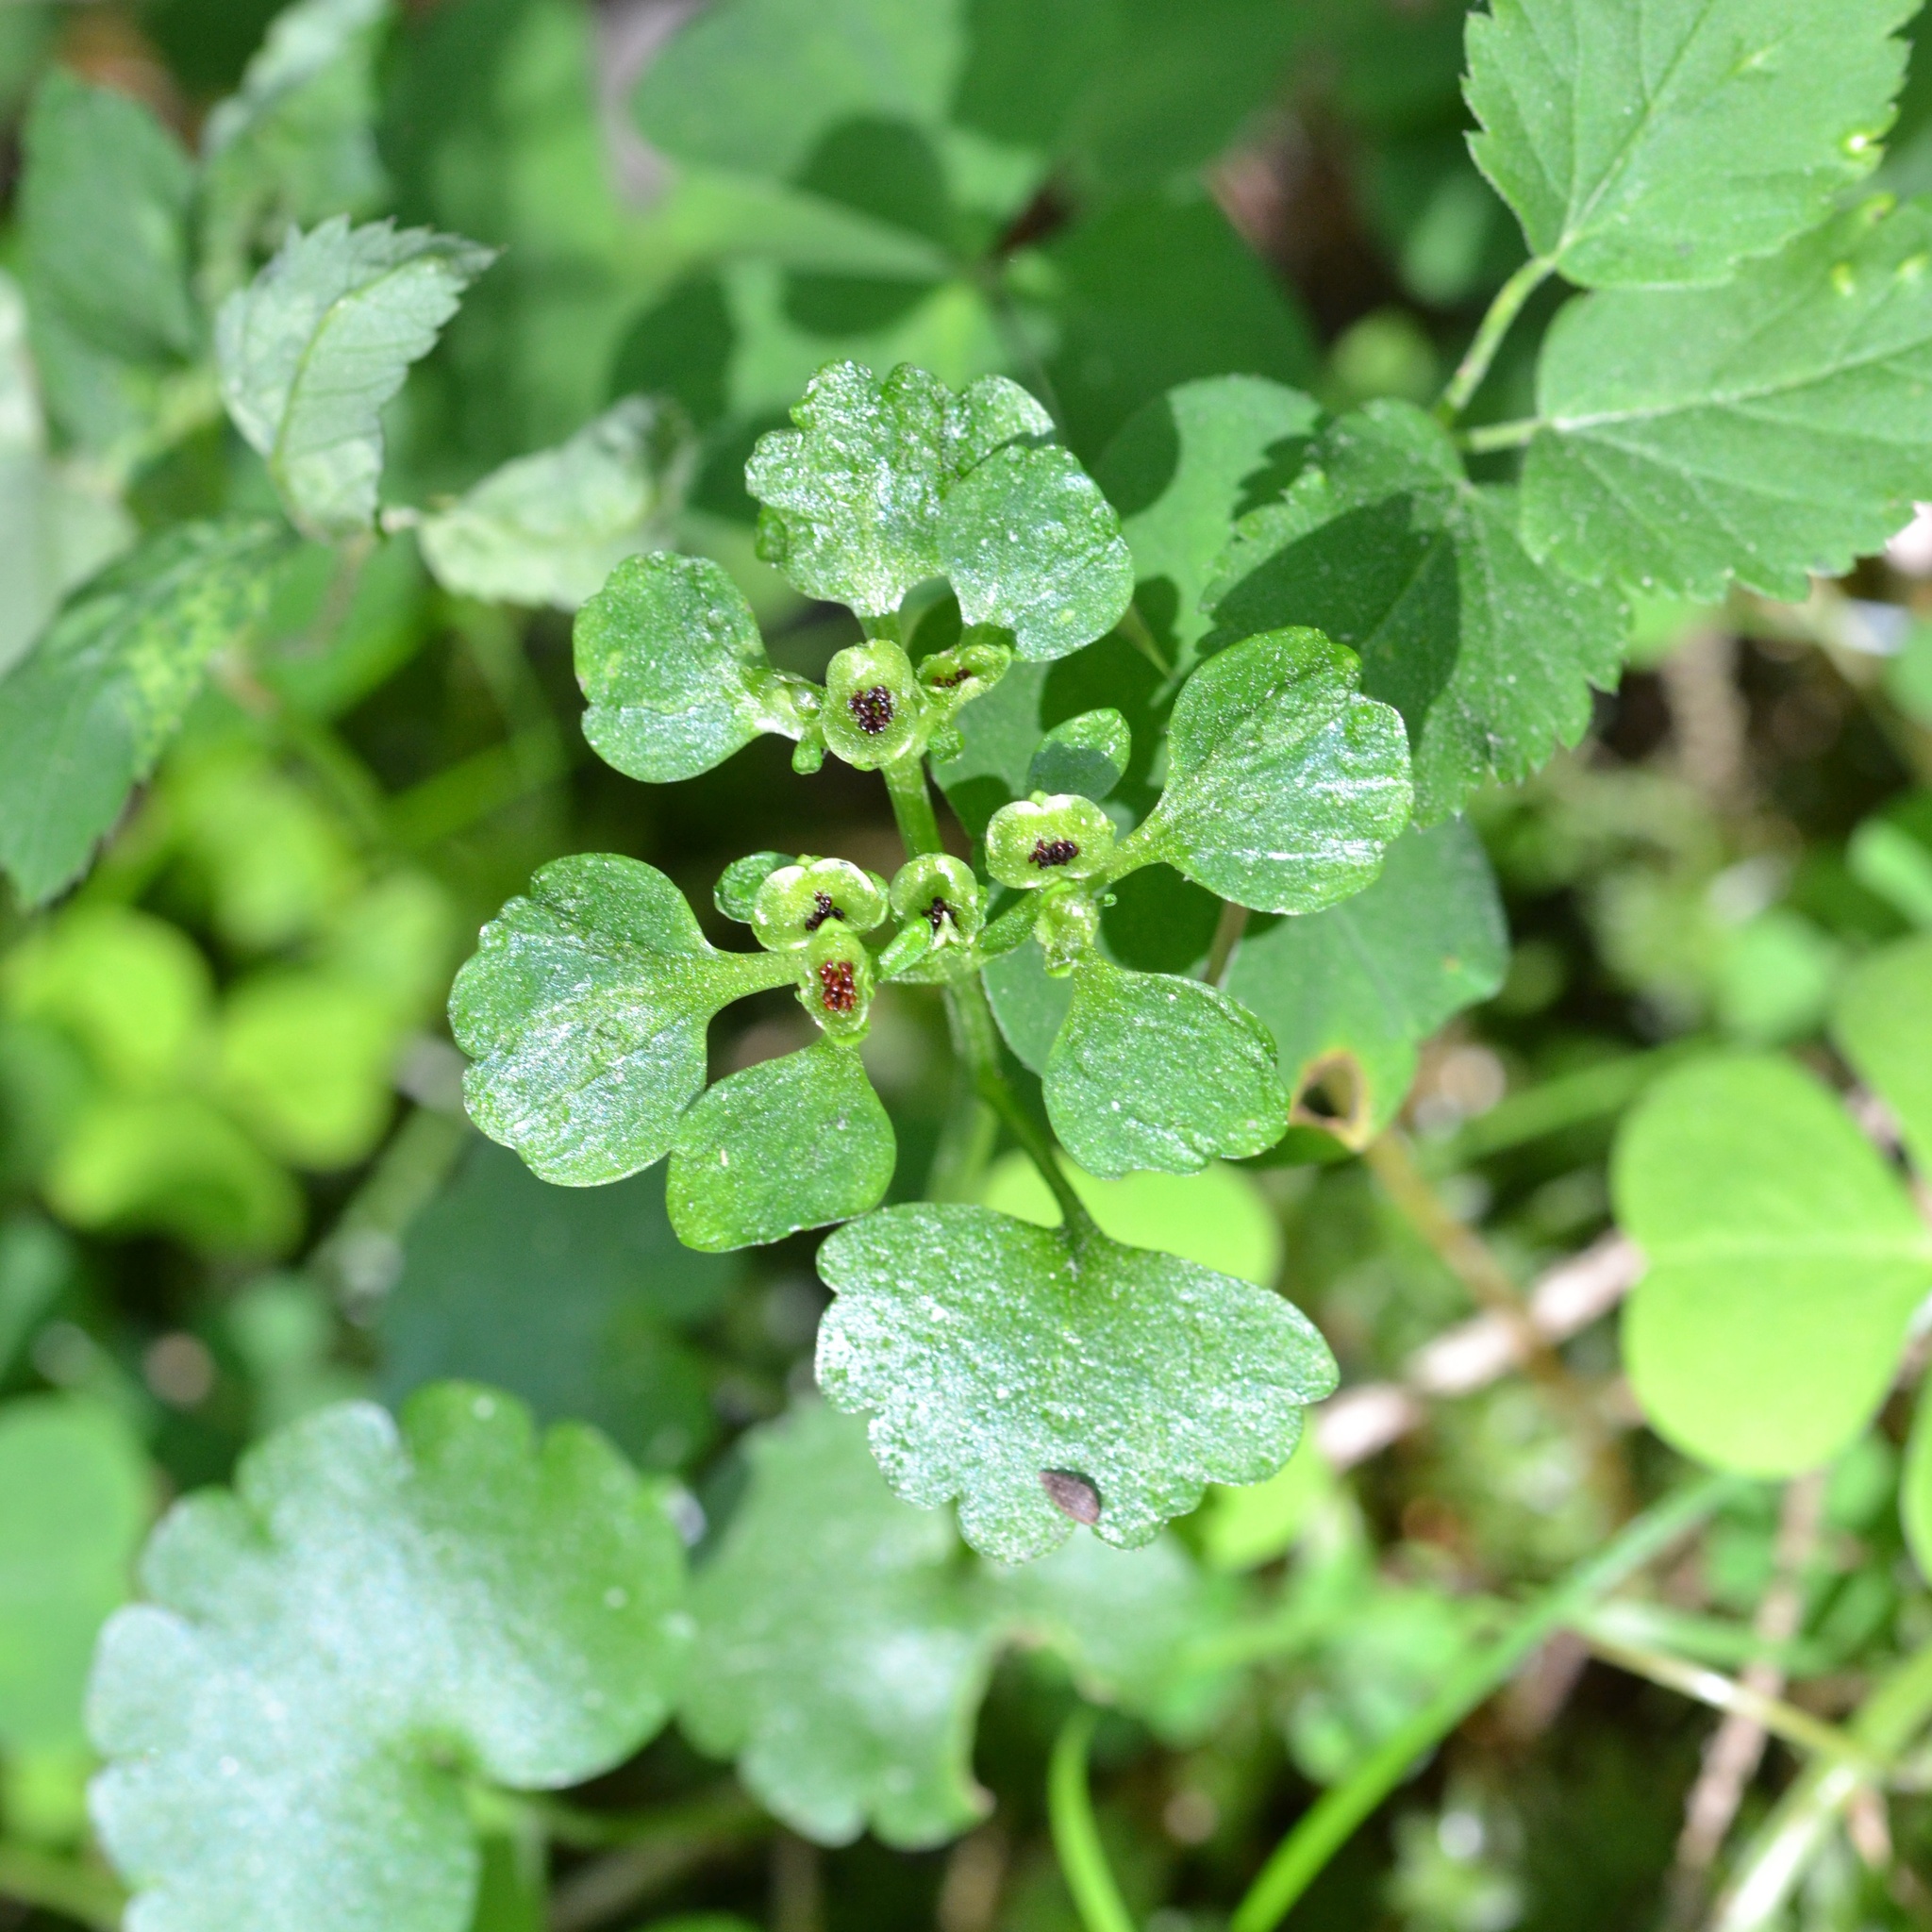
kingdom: Plantae
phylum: Tracheophyta
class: Magnoliopsida
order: Saxifragales
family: Saxifragaceae
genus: Chrysosplenium
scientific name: Chrysosplenium alternifolium
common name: Alternate-leaved golden-saxifrage
